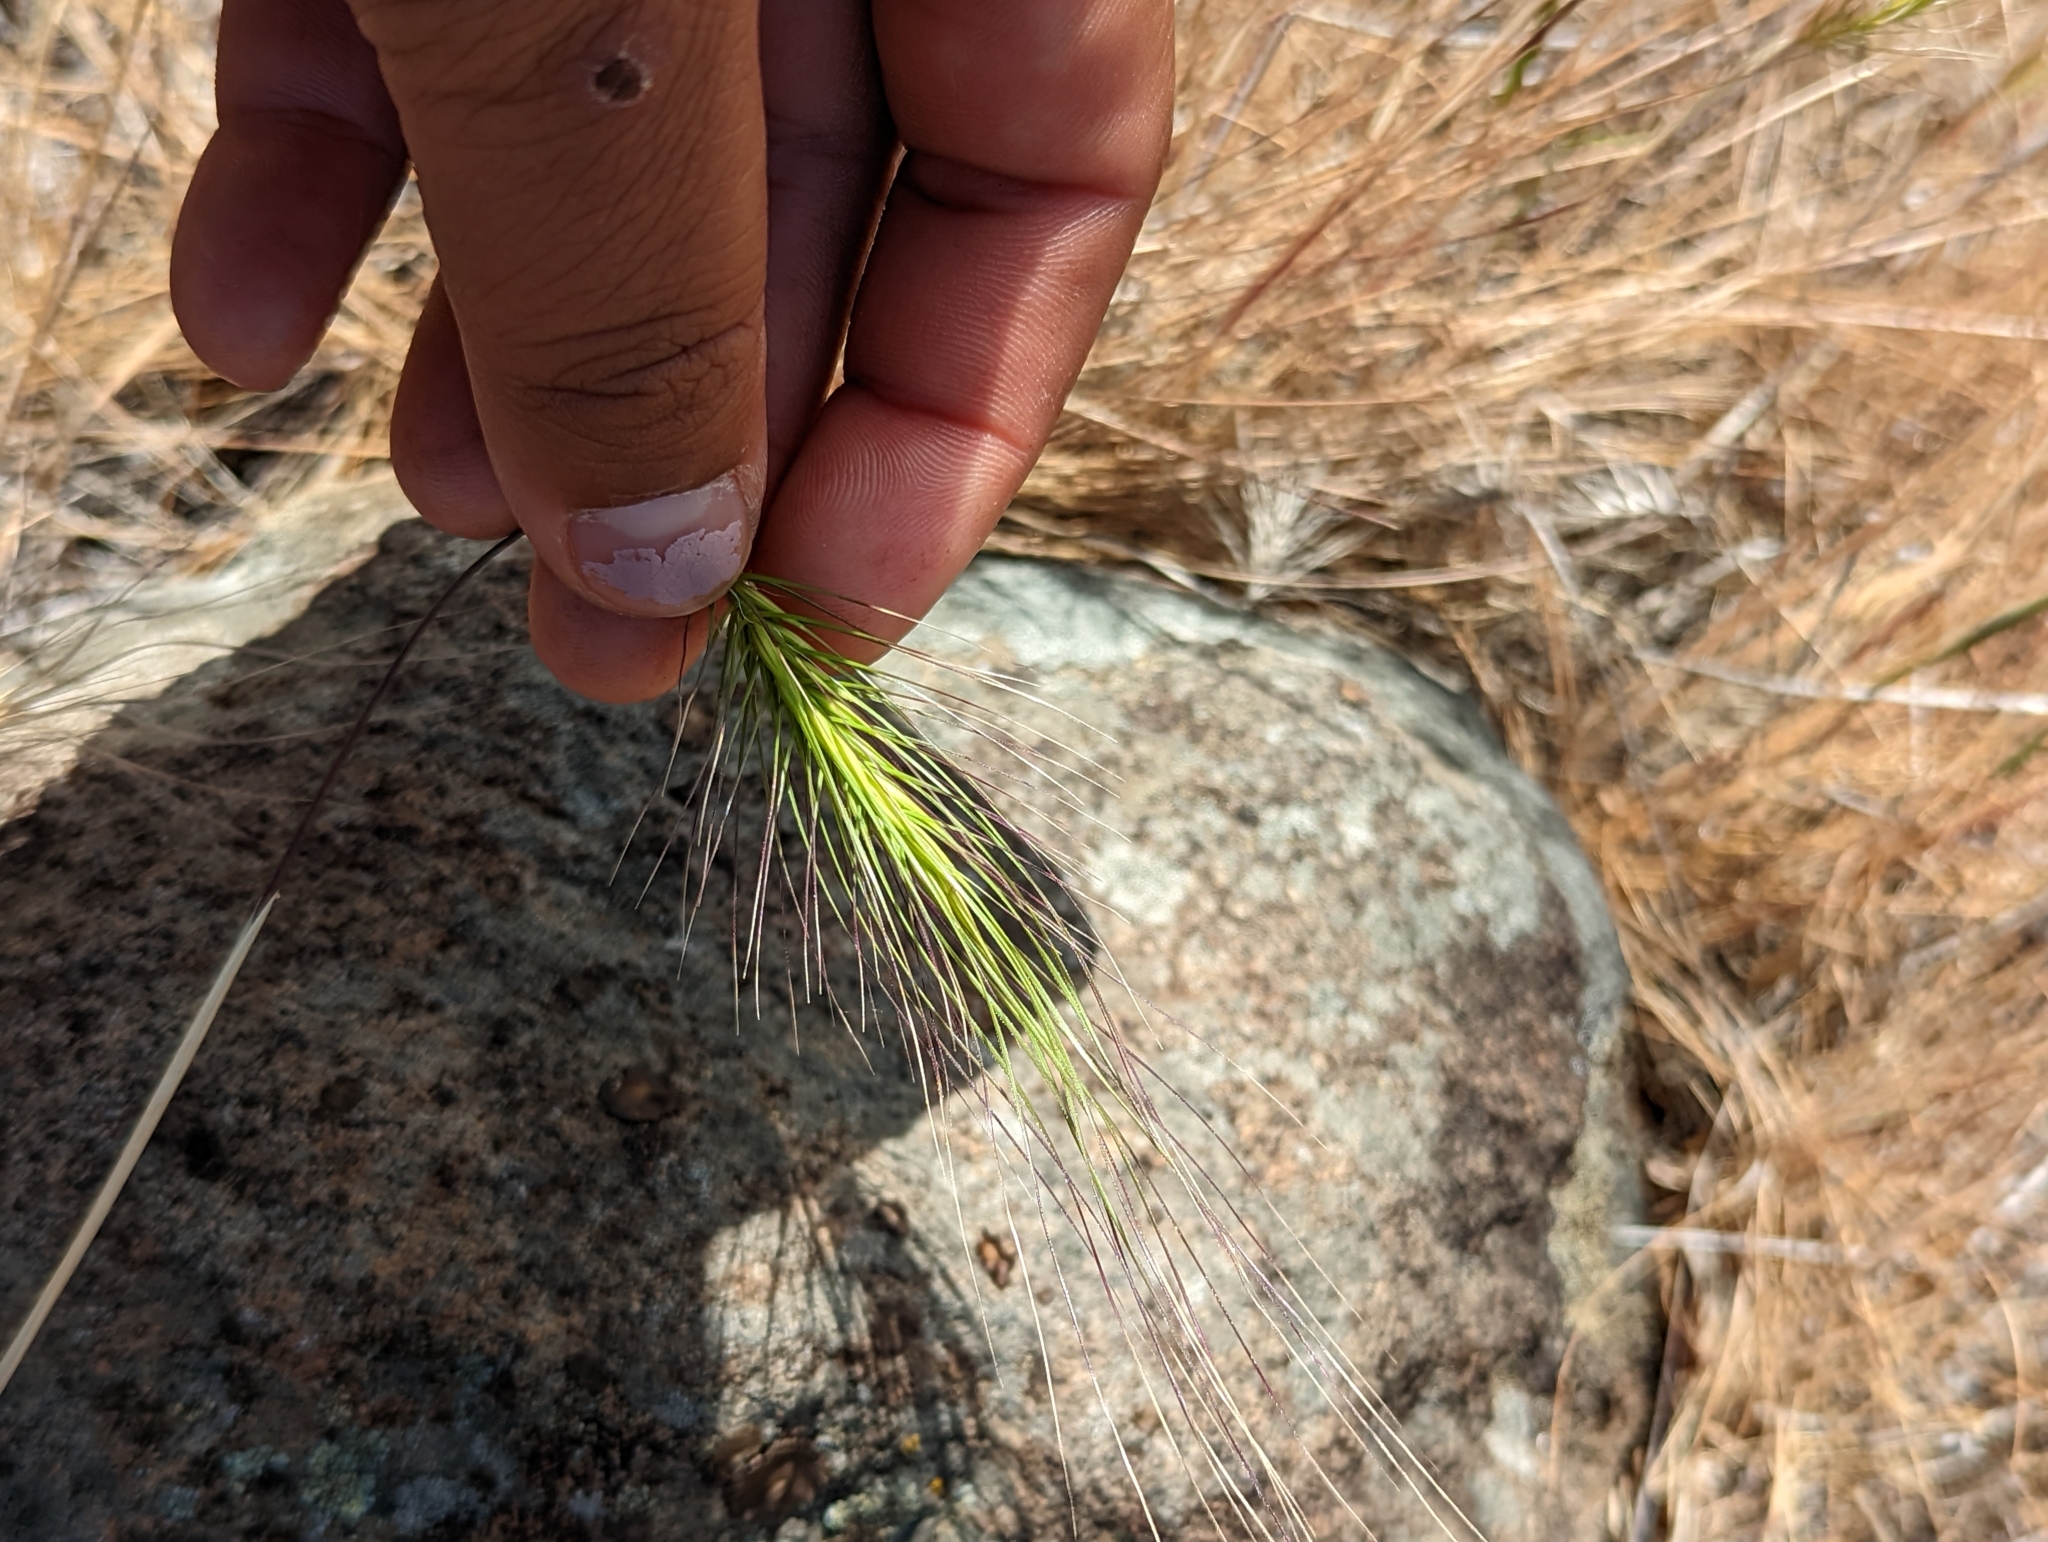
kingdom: Plantae
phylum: Tracheophyta
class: Liliopsida
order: Poales
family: Poaceae
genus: Taeniatherum
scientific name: Taeniatherum caput-medusae
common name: Medusahead
